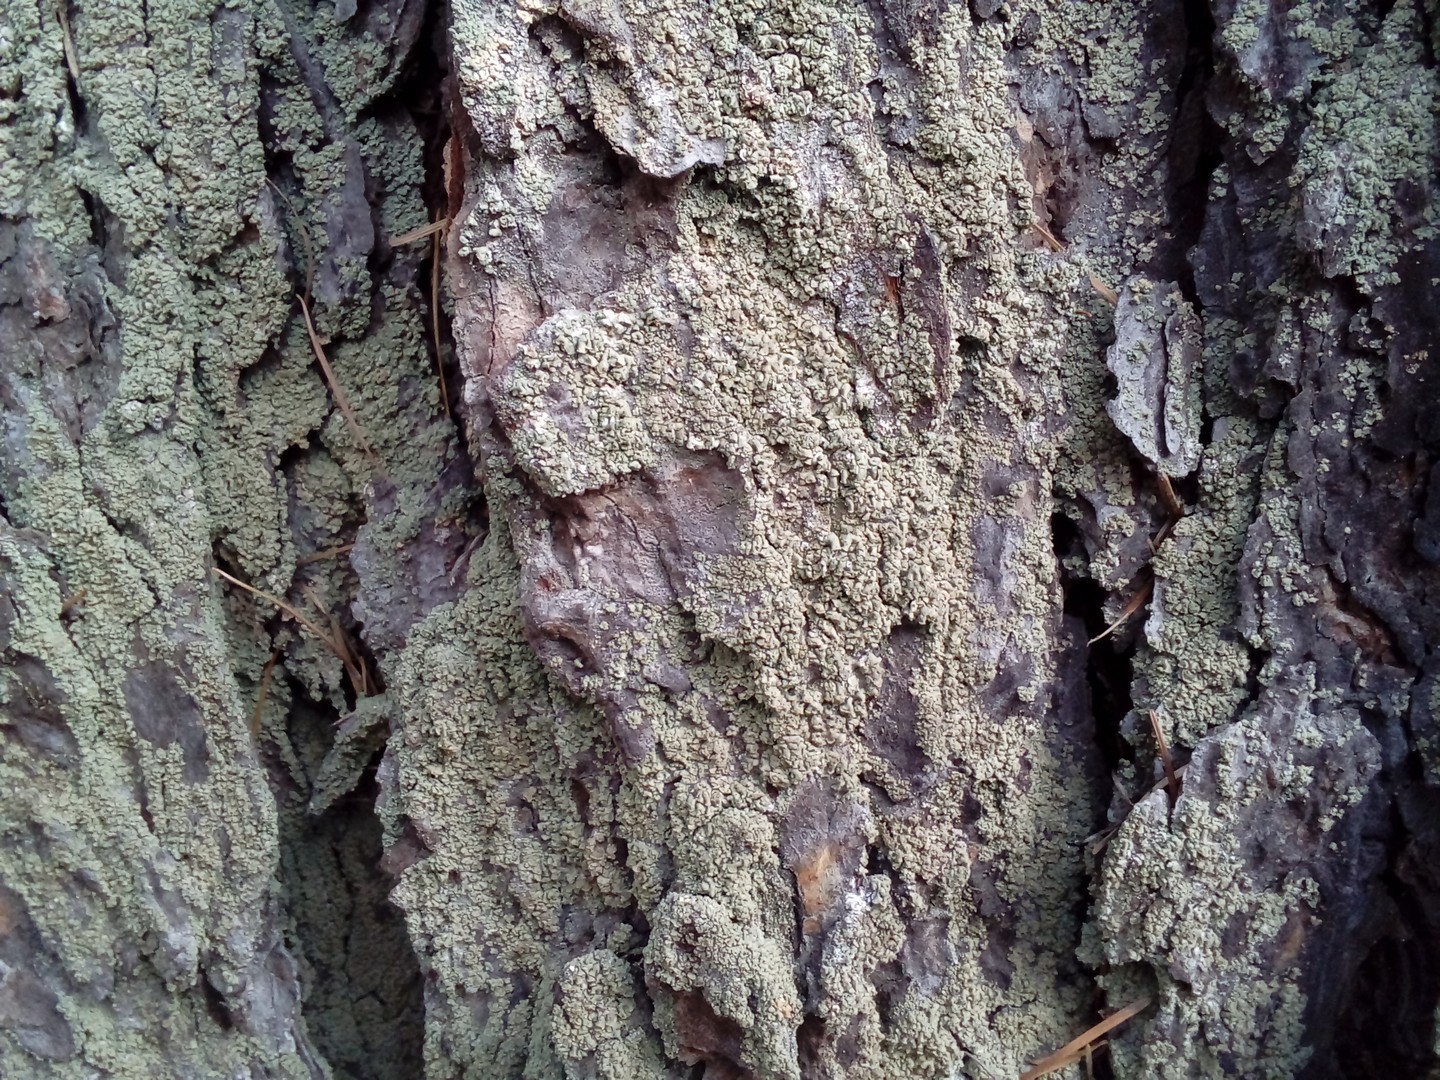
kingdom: Fungi
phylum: Ascomycota
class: Lecanoromycetes
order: Umbilicariales
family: Ophioparmaceae
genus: Hypocenomyce
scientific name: Hypocenomyce scalaris
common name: Common clam lichen
